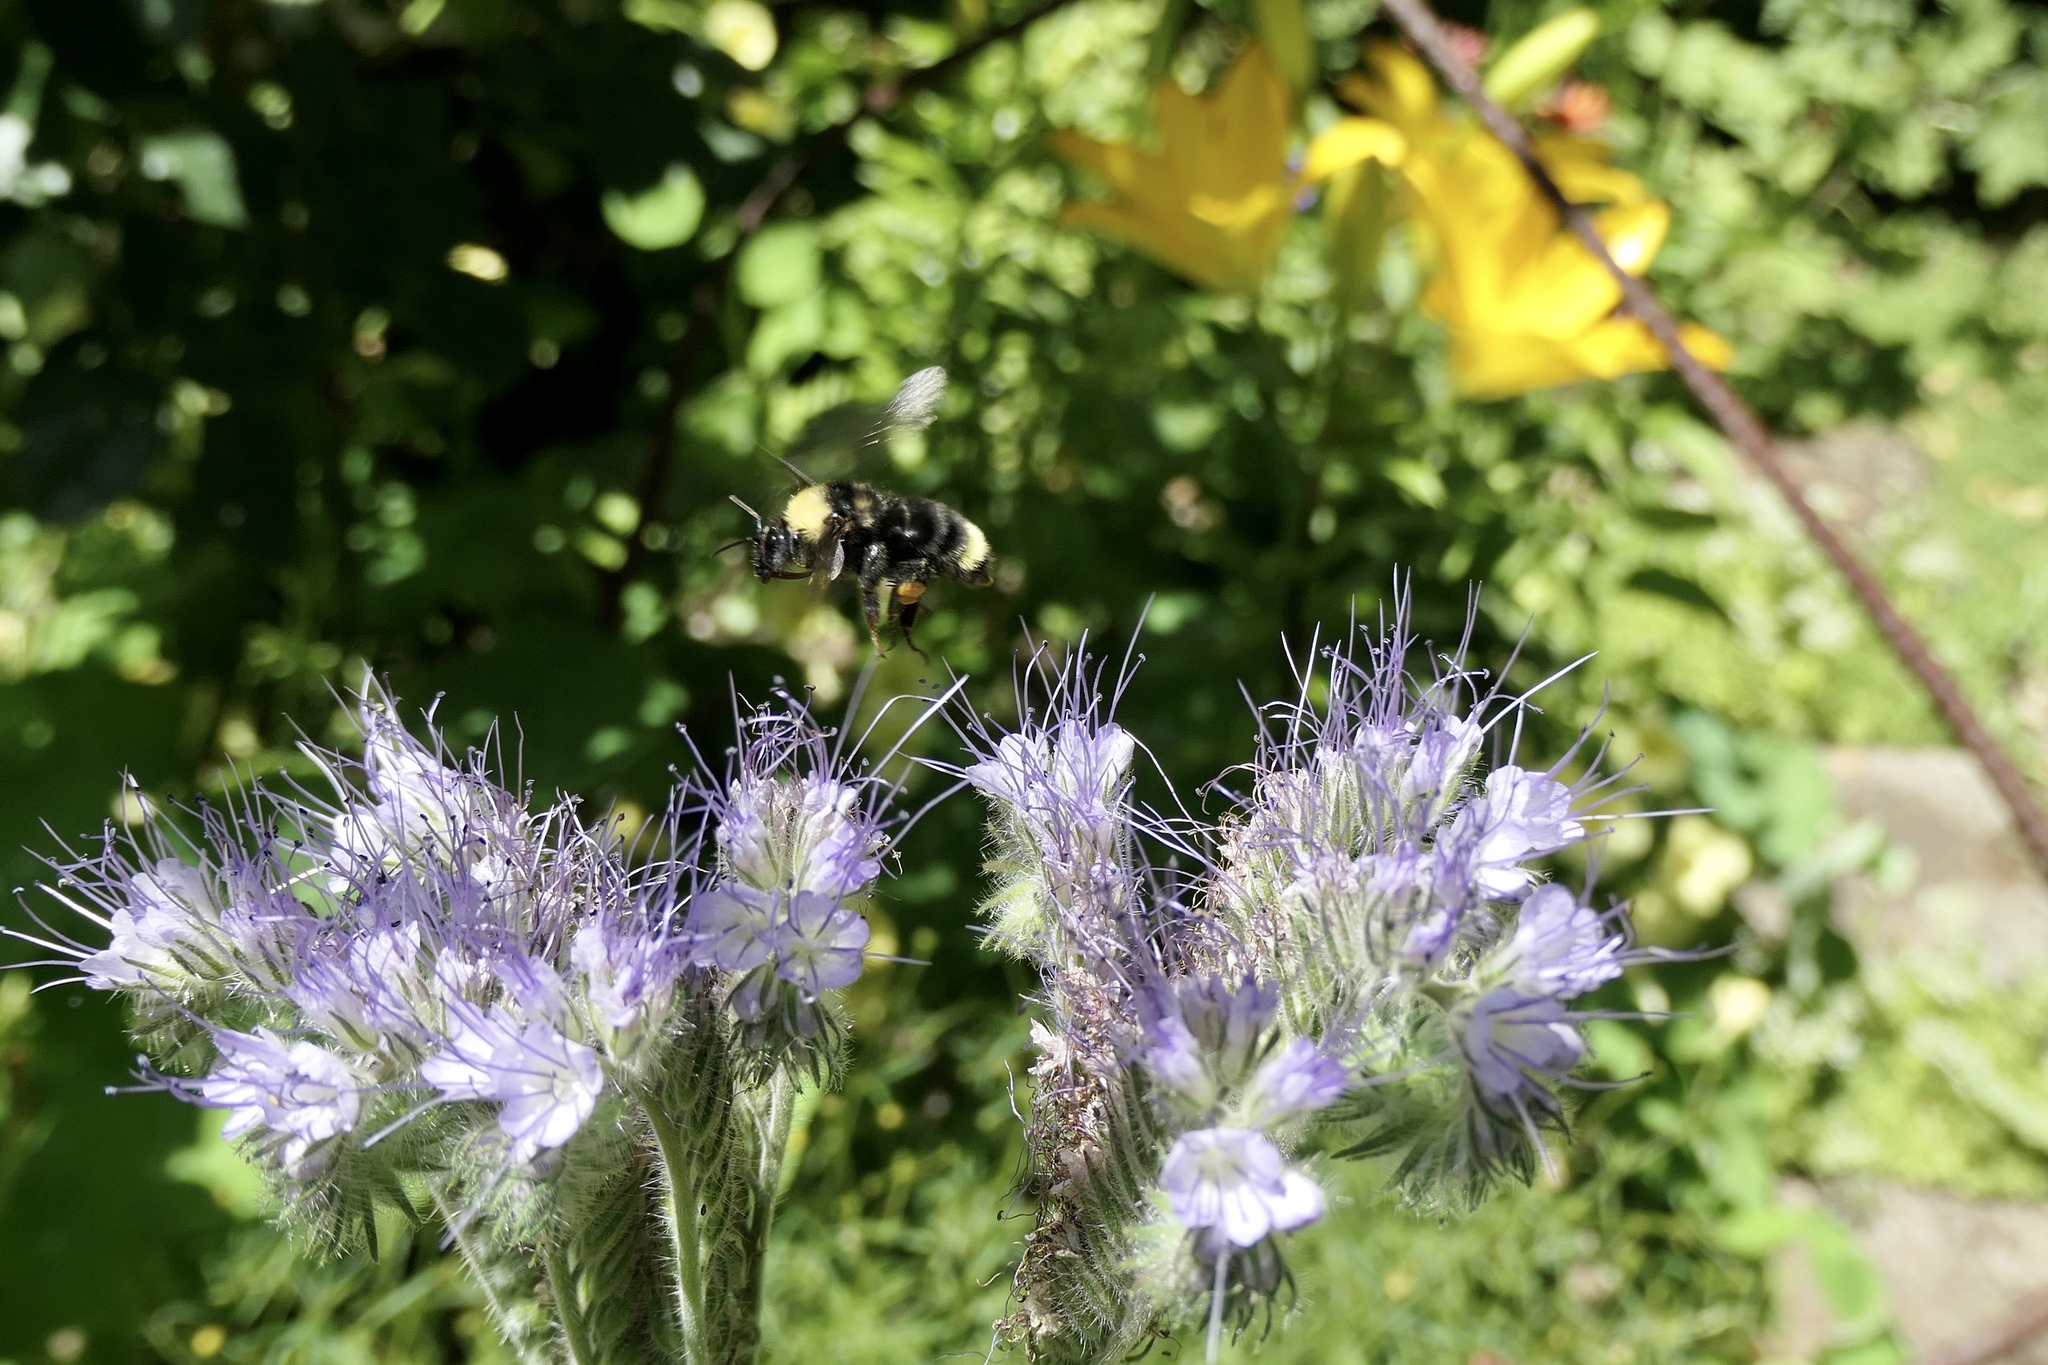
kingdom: Animalia
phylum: Arthropoda
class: Insecta
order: Hymenoptera
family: Apidae
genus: Bombus
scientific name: Bombus californicus
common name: California bumble bee
